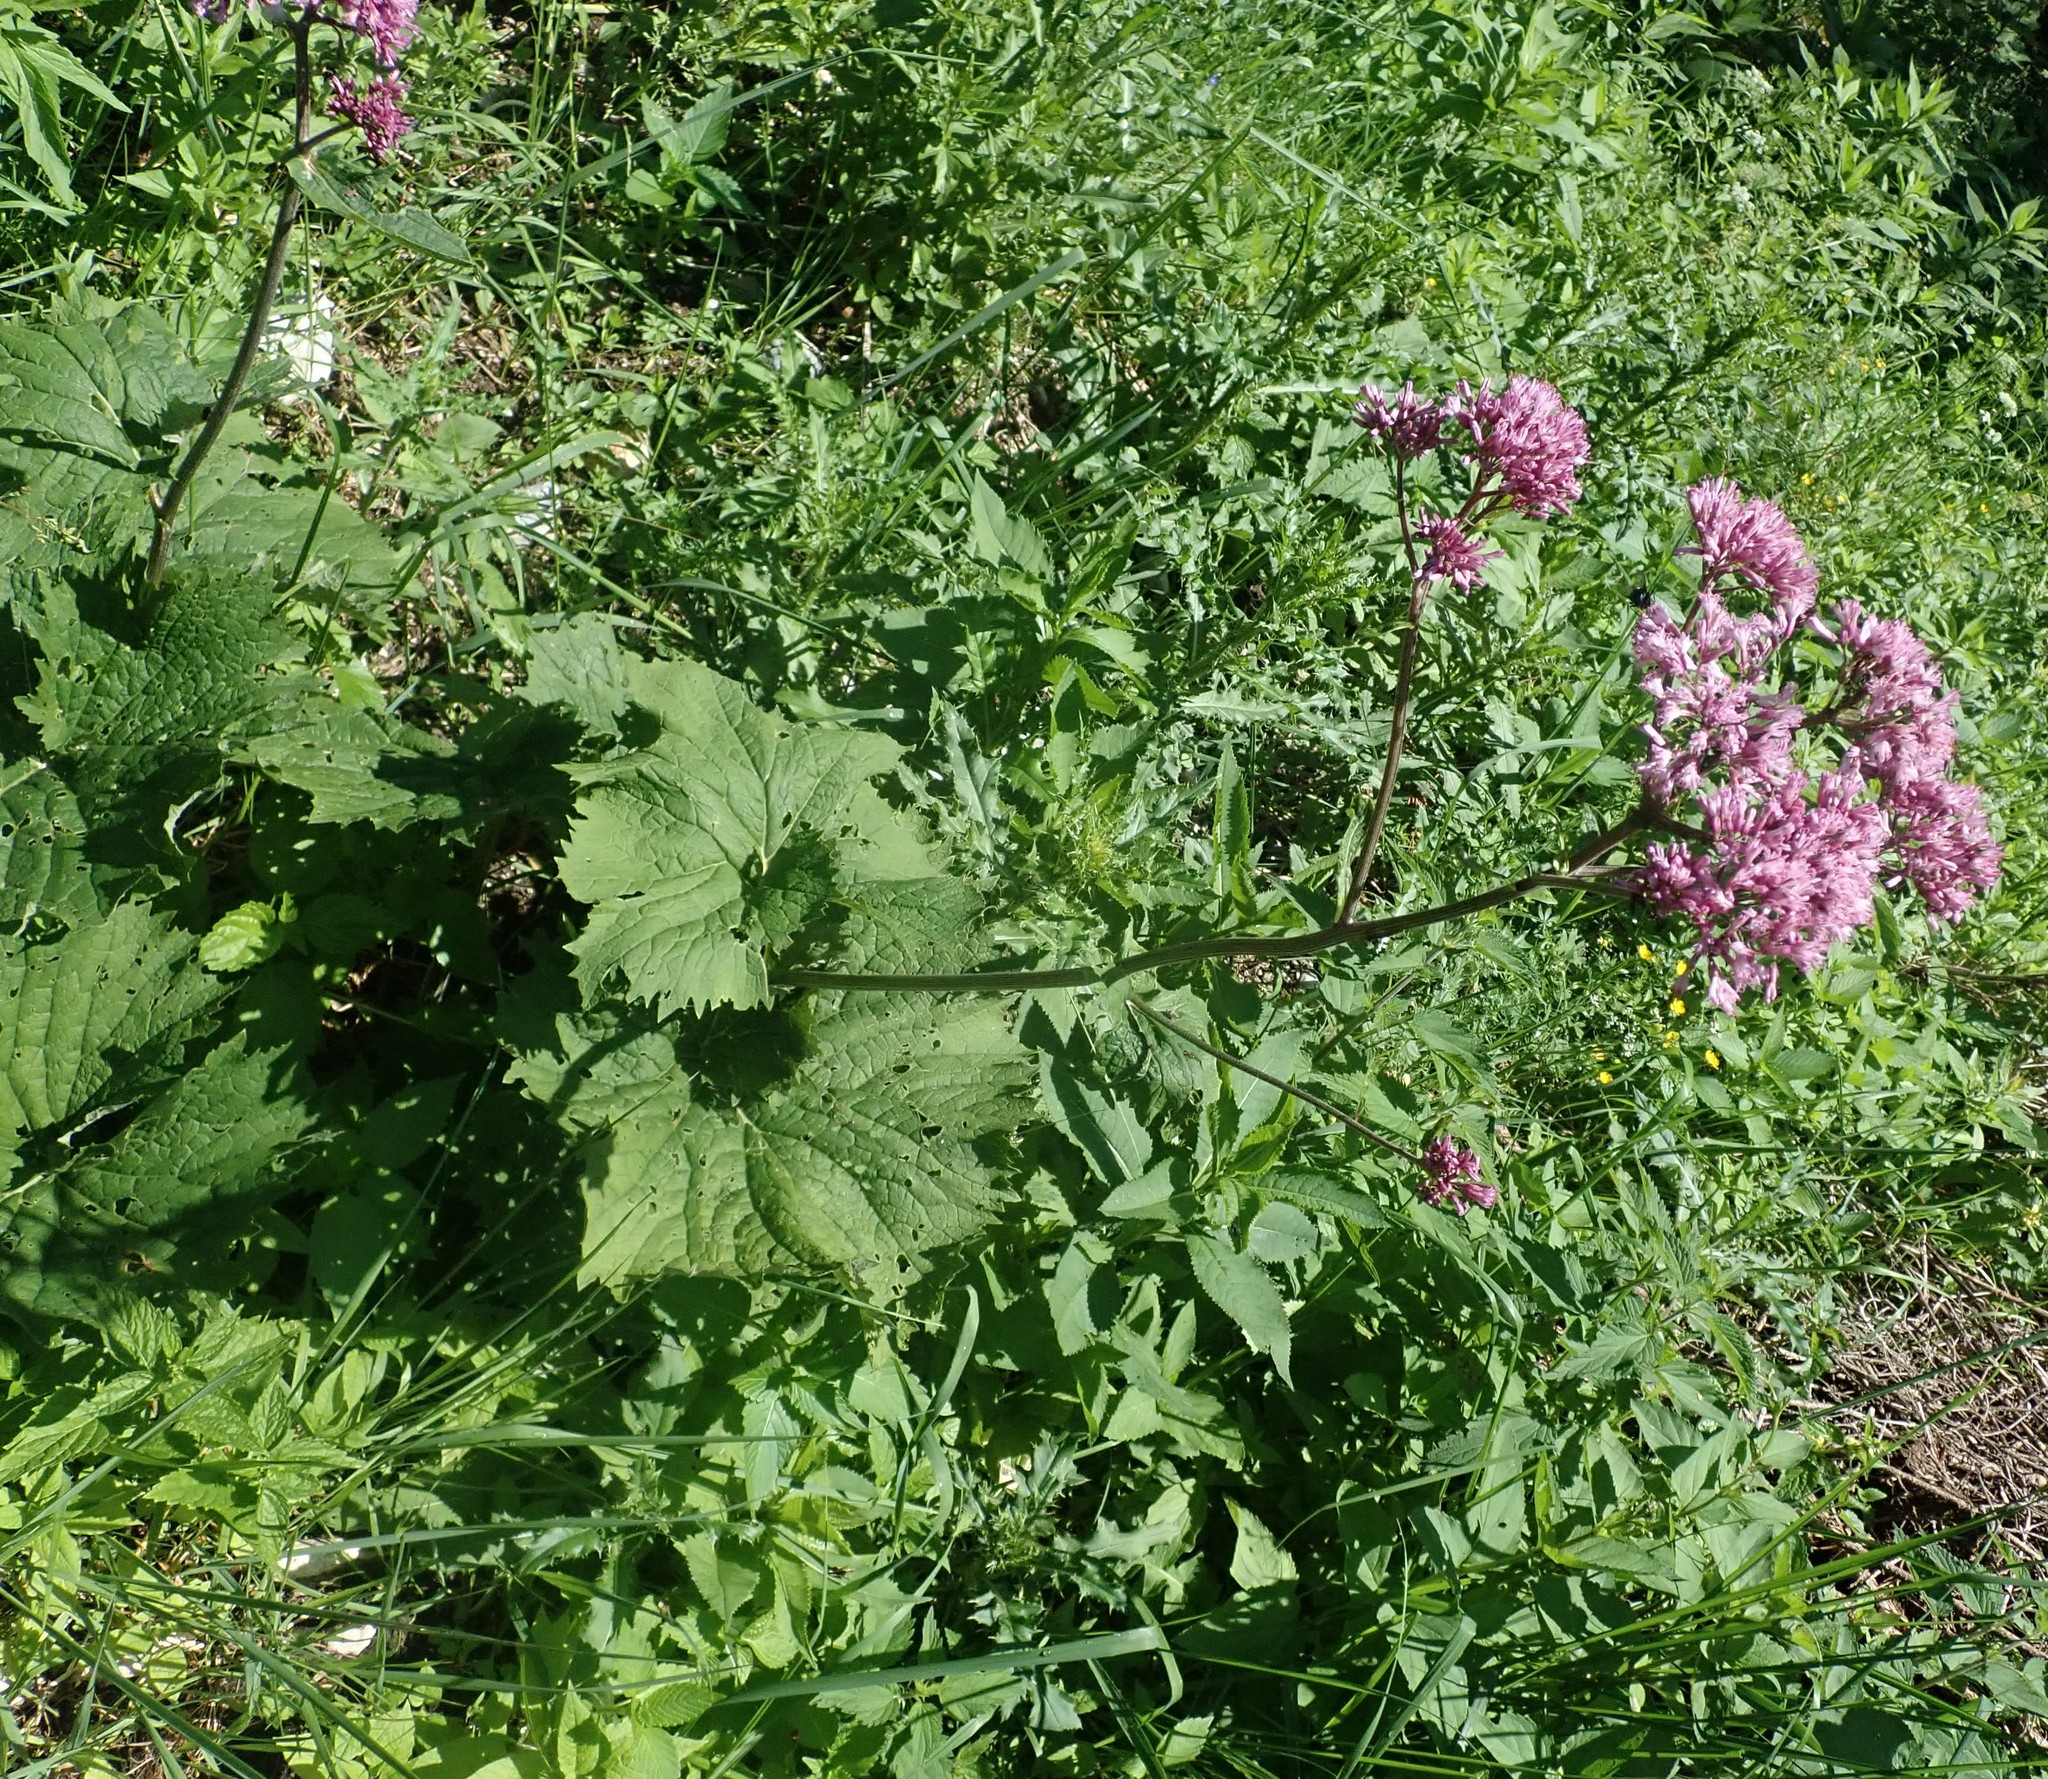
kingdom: Plantae
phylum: Tracheophyta
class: Magnoliopsida
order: Asterales
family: Asteraceae
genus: Adenostyles
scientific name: Adenostyles alliariae
